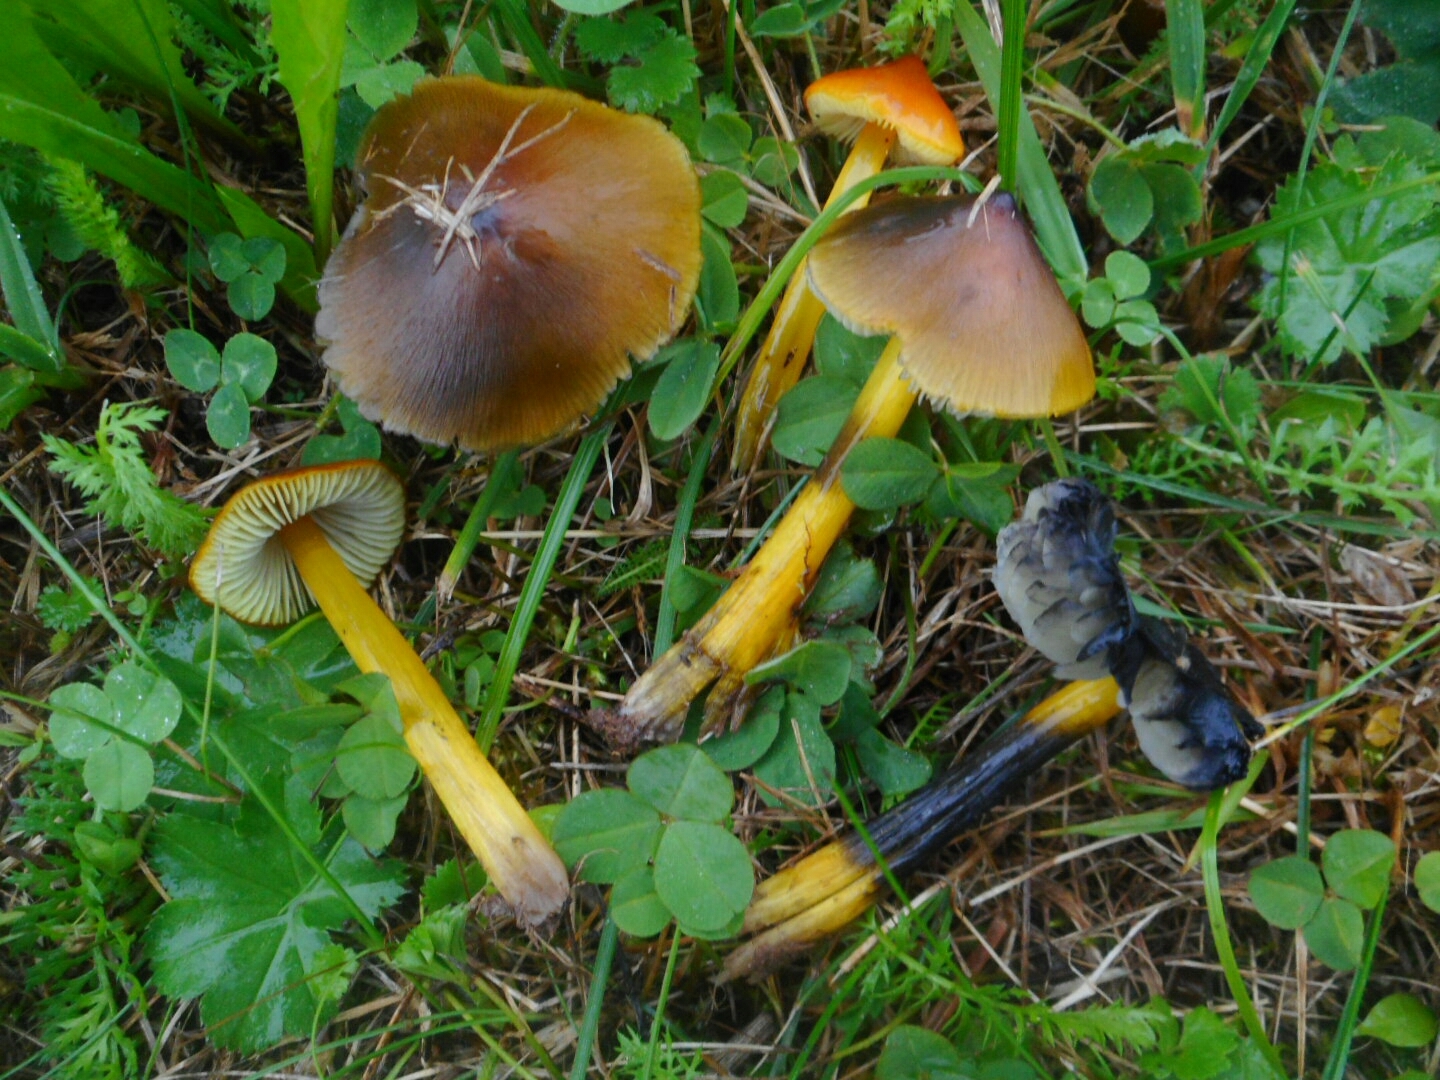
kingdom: Fungi
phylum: Basidiomycota
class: Agaricomycetes
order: Agaricales
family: Hygrophoraceae
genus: Hygrocybe
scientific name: Hygrocybe conica
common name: Blackening wax-cap
